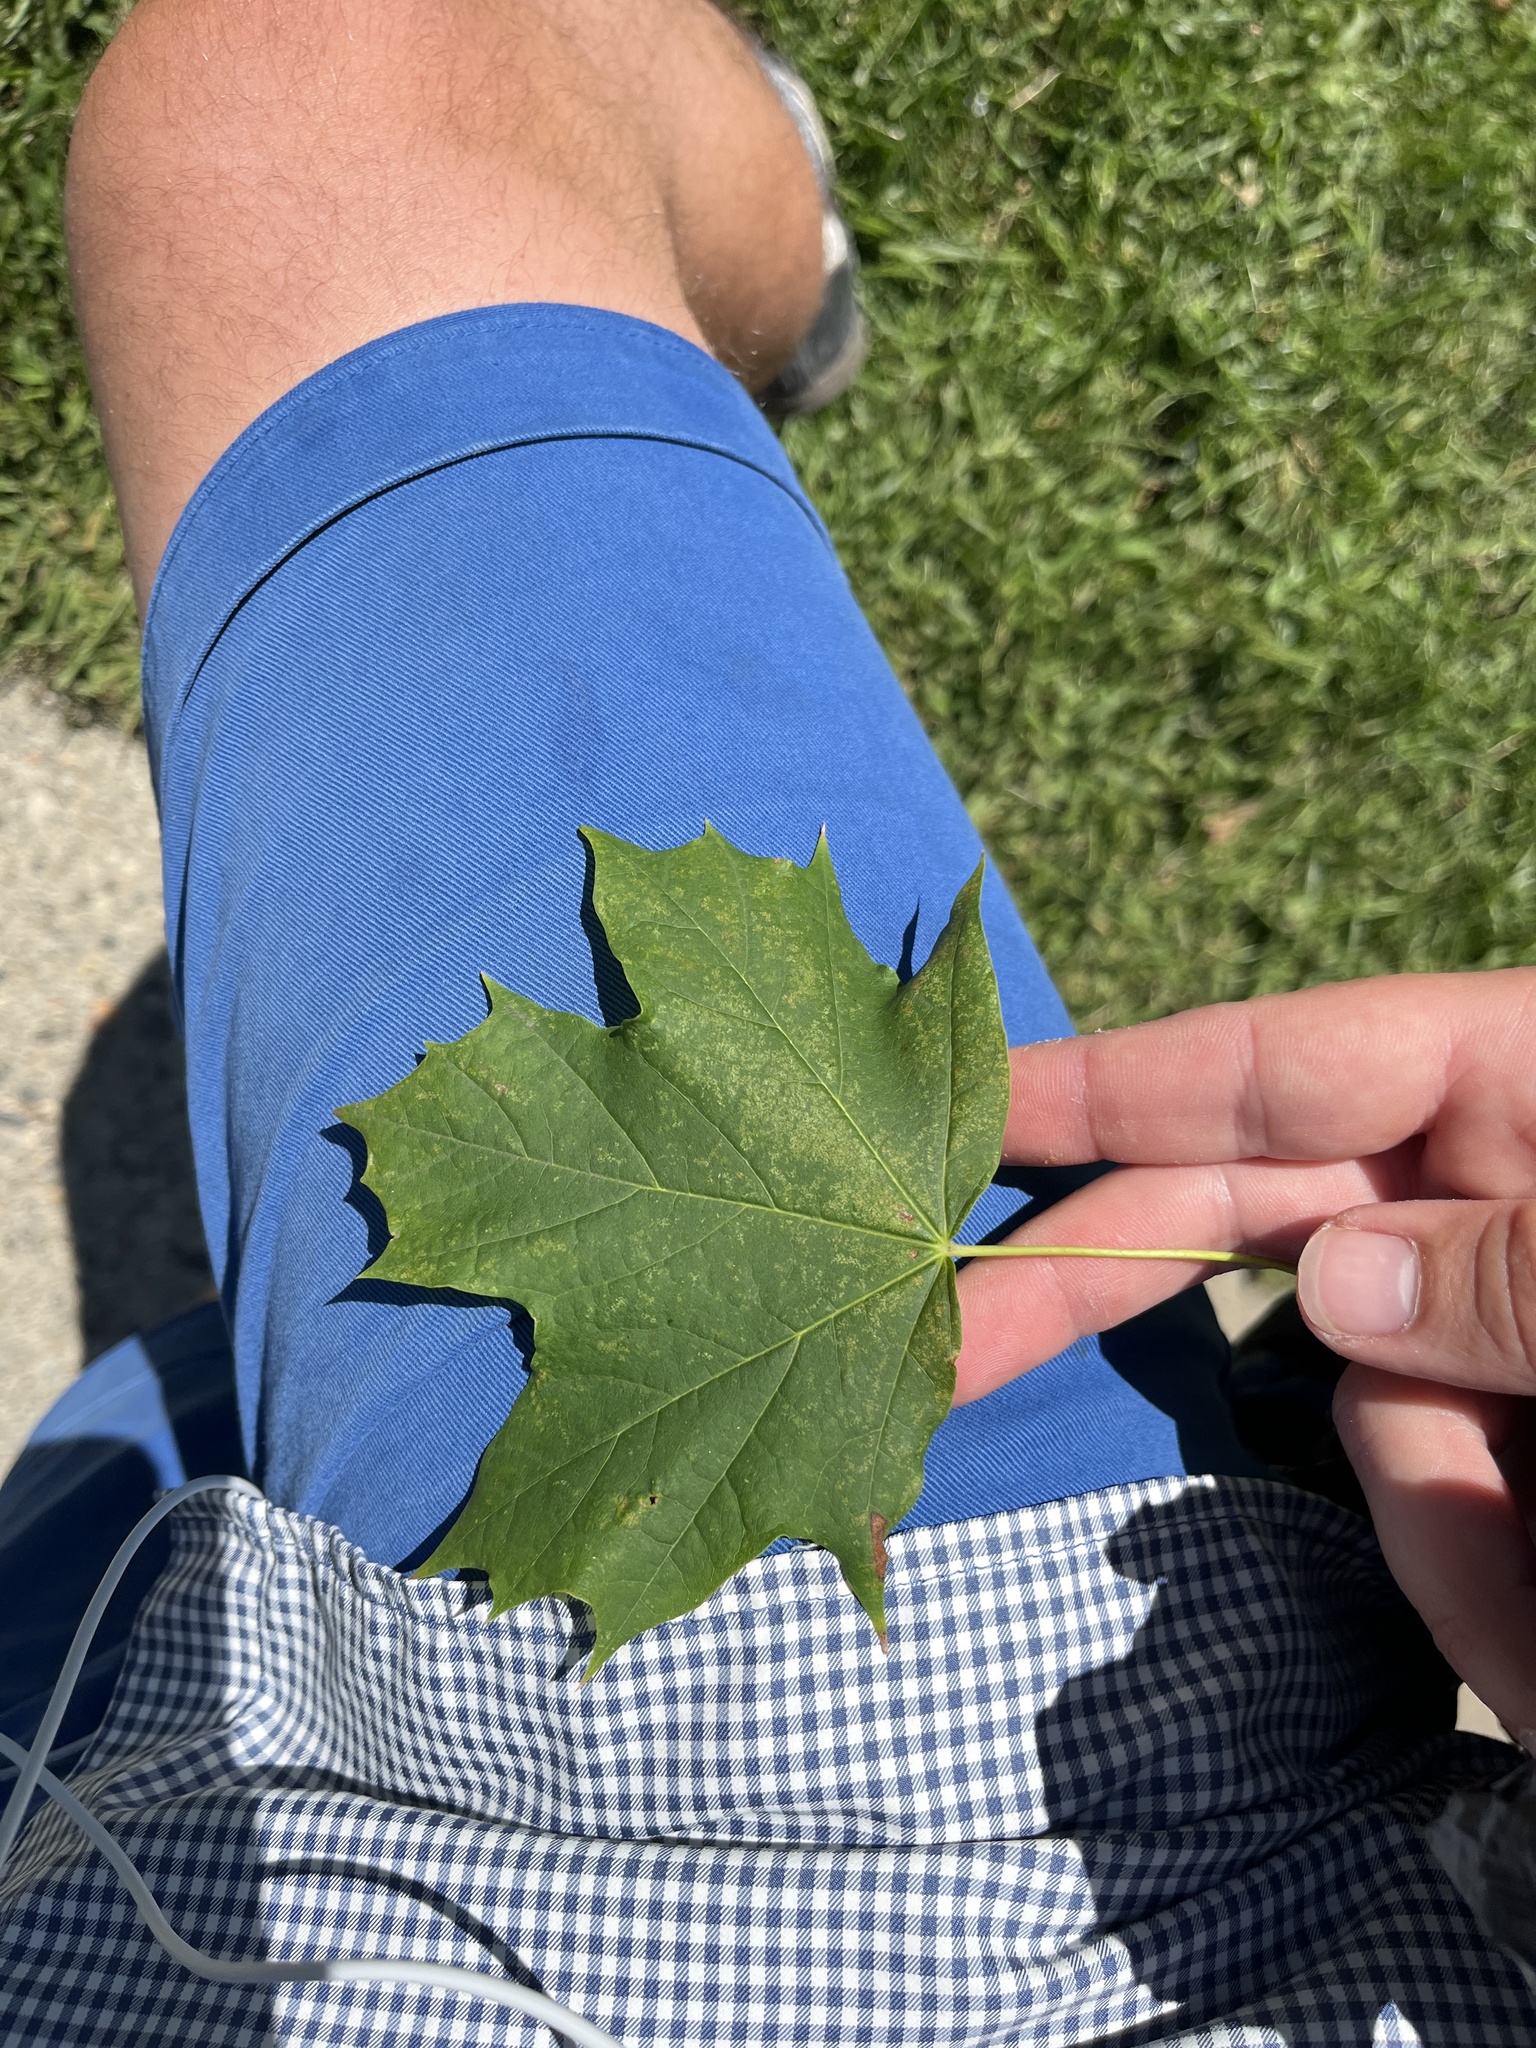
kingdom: Plantae
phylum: Tracheophyta
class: Magnoliopsida
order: Sapindales
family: Sapindaceae
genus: Acer
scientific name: Acer platanoides
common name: Norway maple
